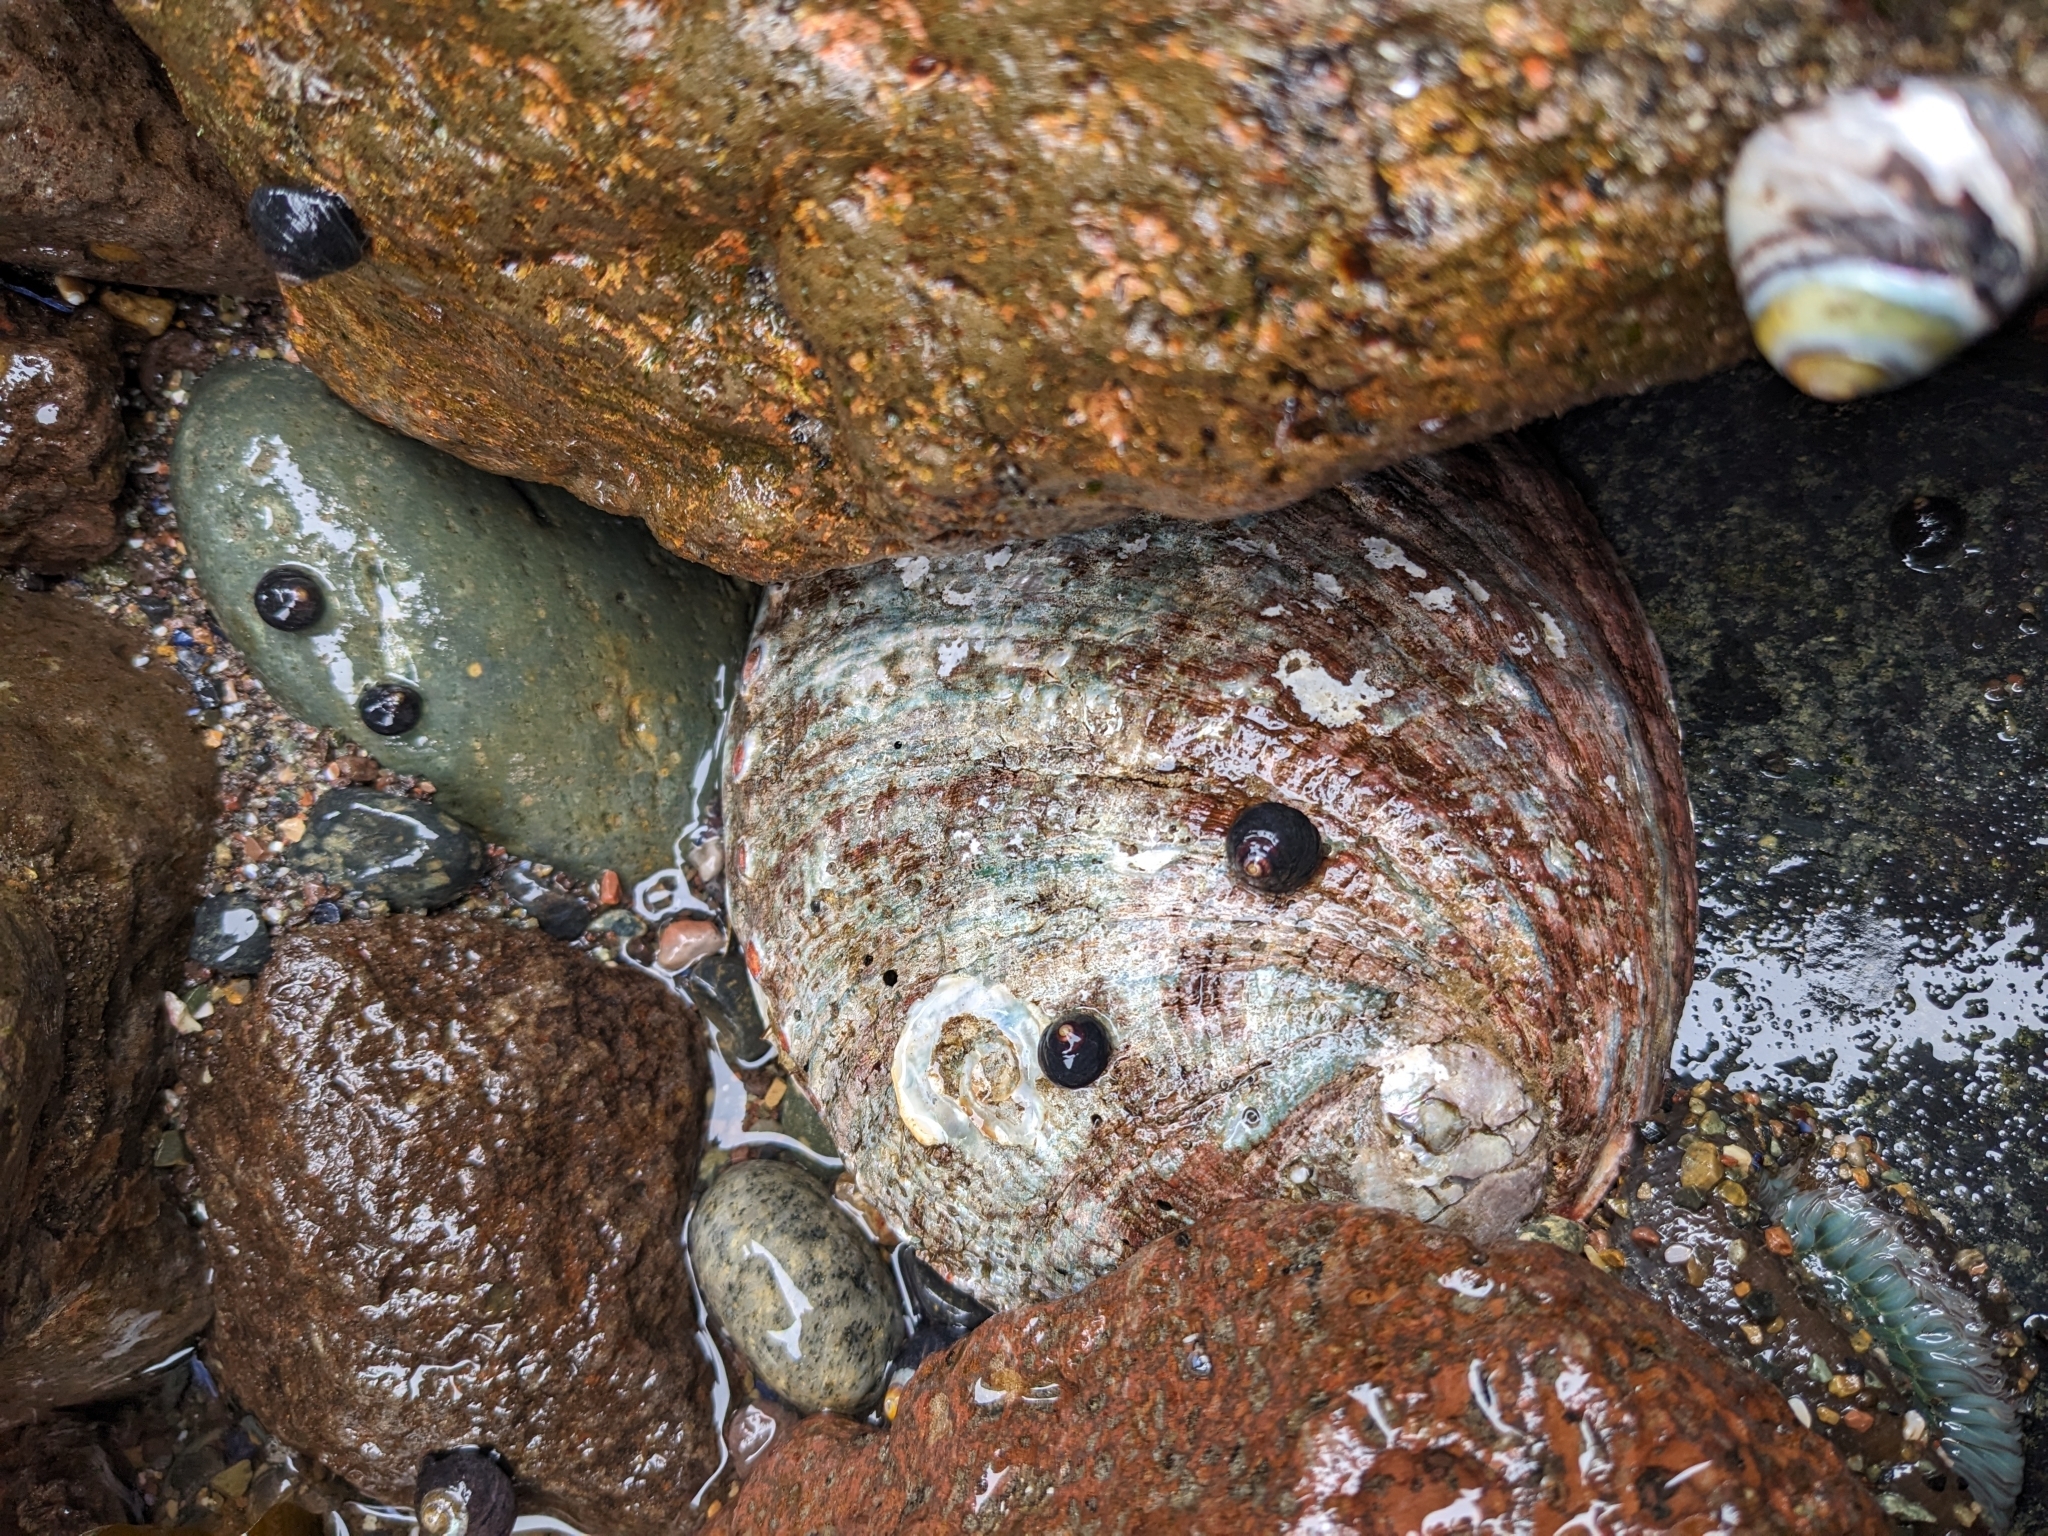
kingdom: Animalia
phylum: Mollusca
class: Gastropoda
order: Lepetellida
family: Haliotidae
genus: Haliotis
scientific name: Haliotis rufescens
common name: Red abalone
